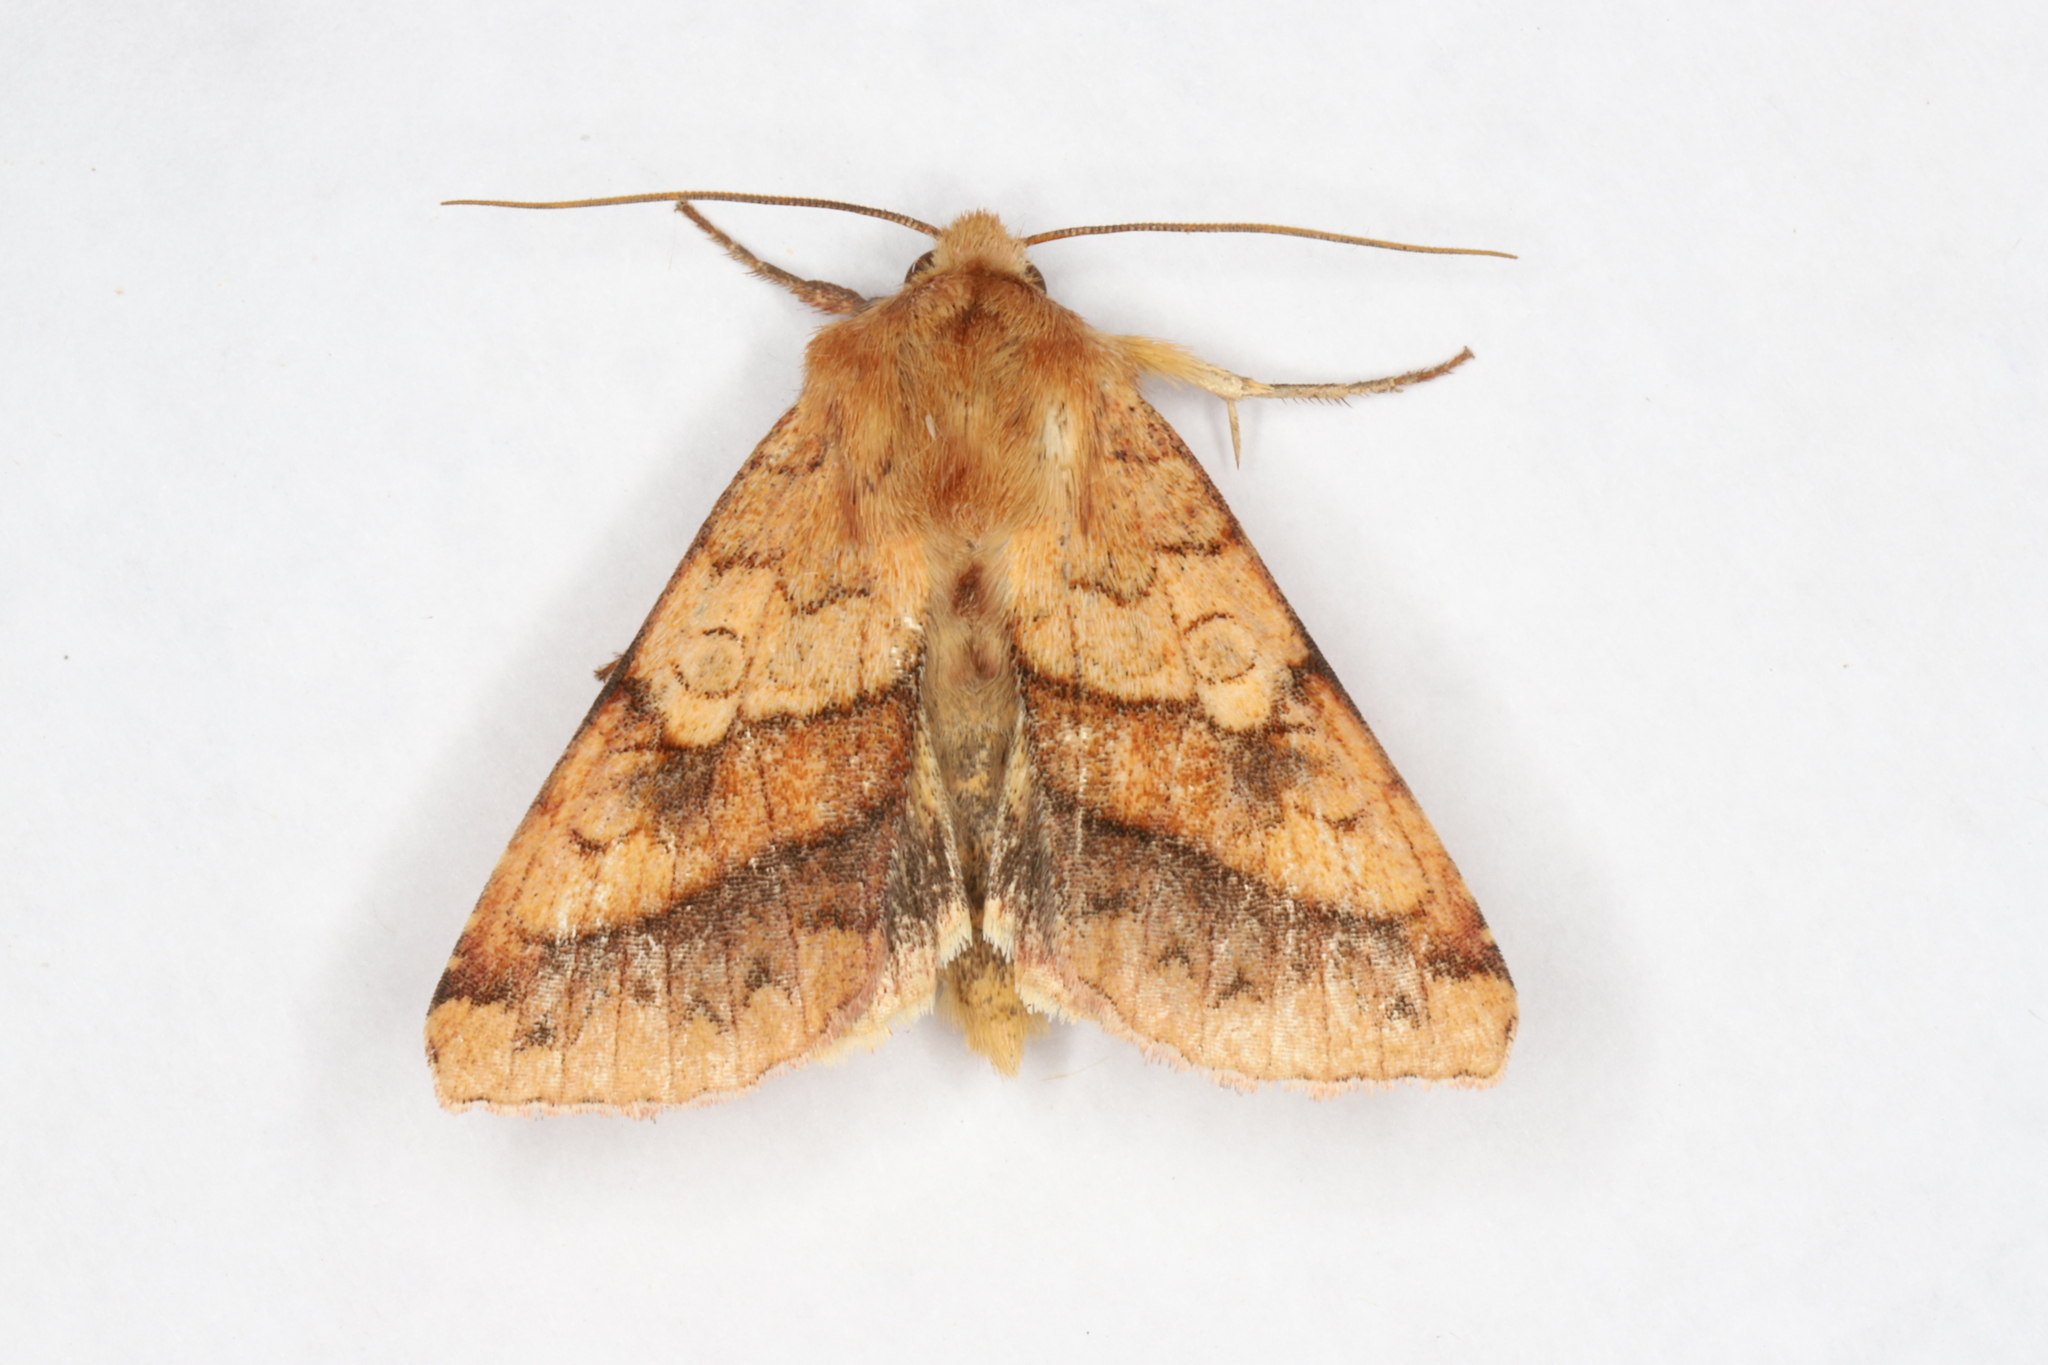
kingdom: Animalia
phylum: Arthropoda
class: Insecta
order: Lepidoptera
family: Noctuidae
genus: Pyrrhia
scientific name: Pyrrhia exprimens
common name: Purple-lined sallow
